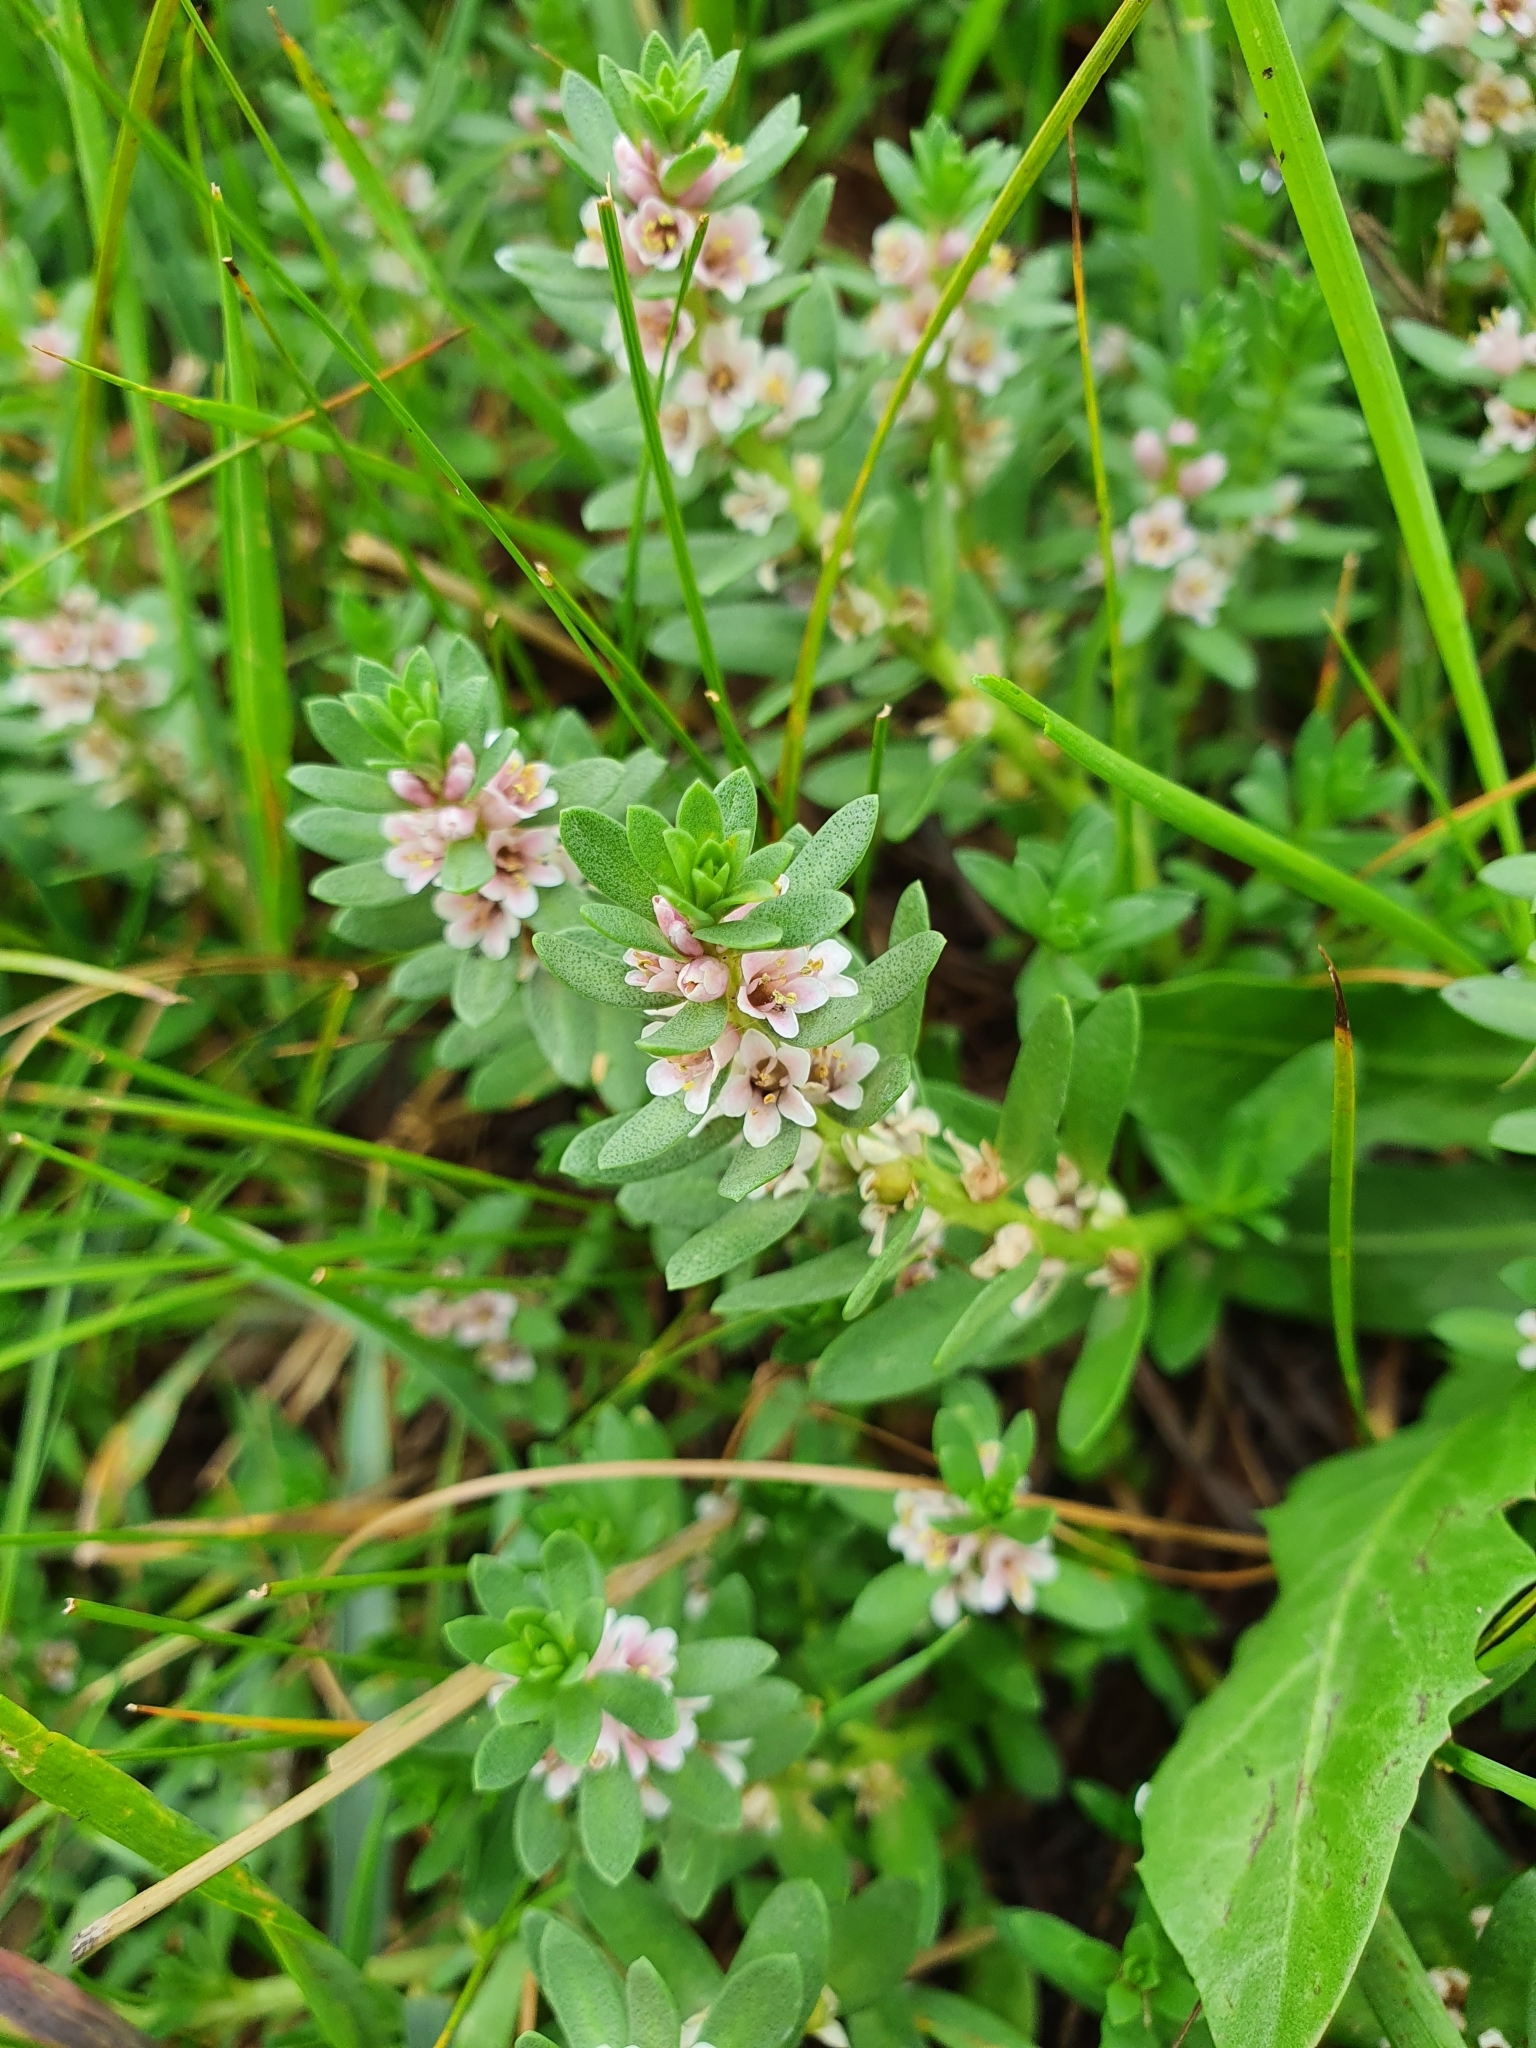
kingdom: Plantae
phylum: Tracheophyta
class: Magnoliopsida
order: Ericales
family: Primulaceae
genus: Lysimachia
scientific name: Lysimachia maritima
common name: Sea milkwort
